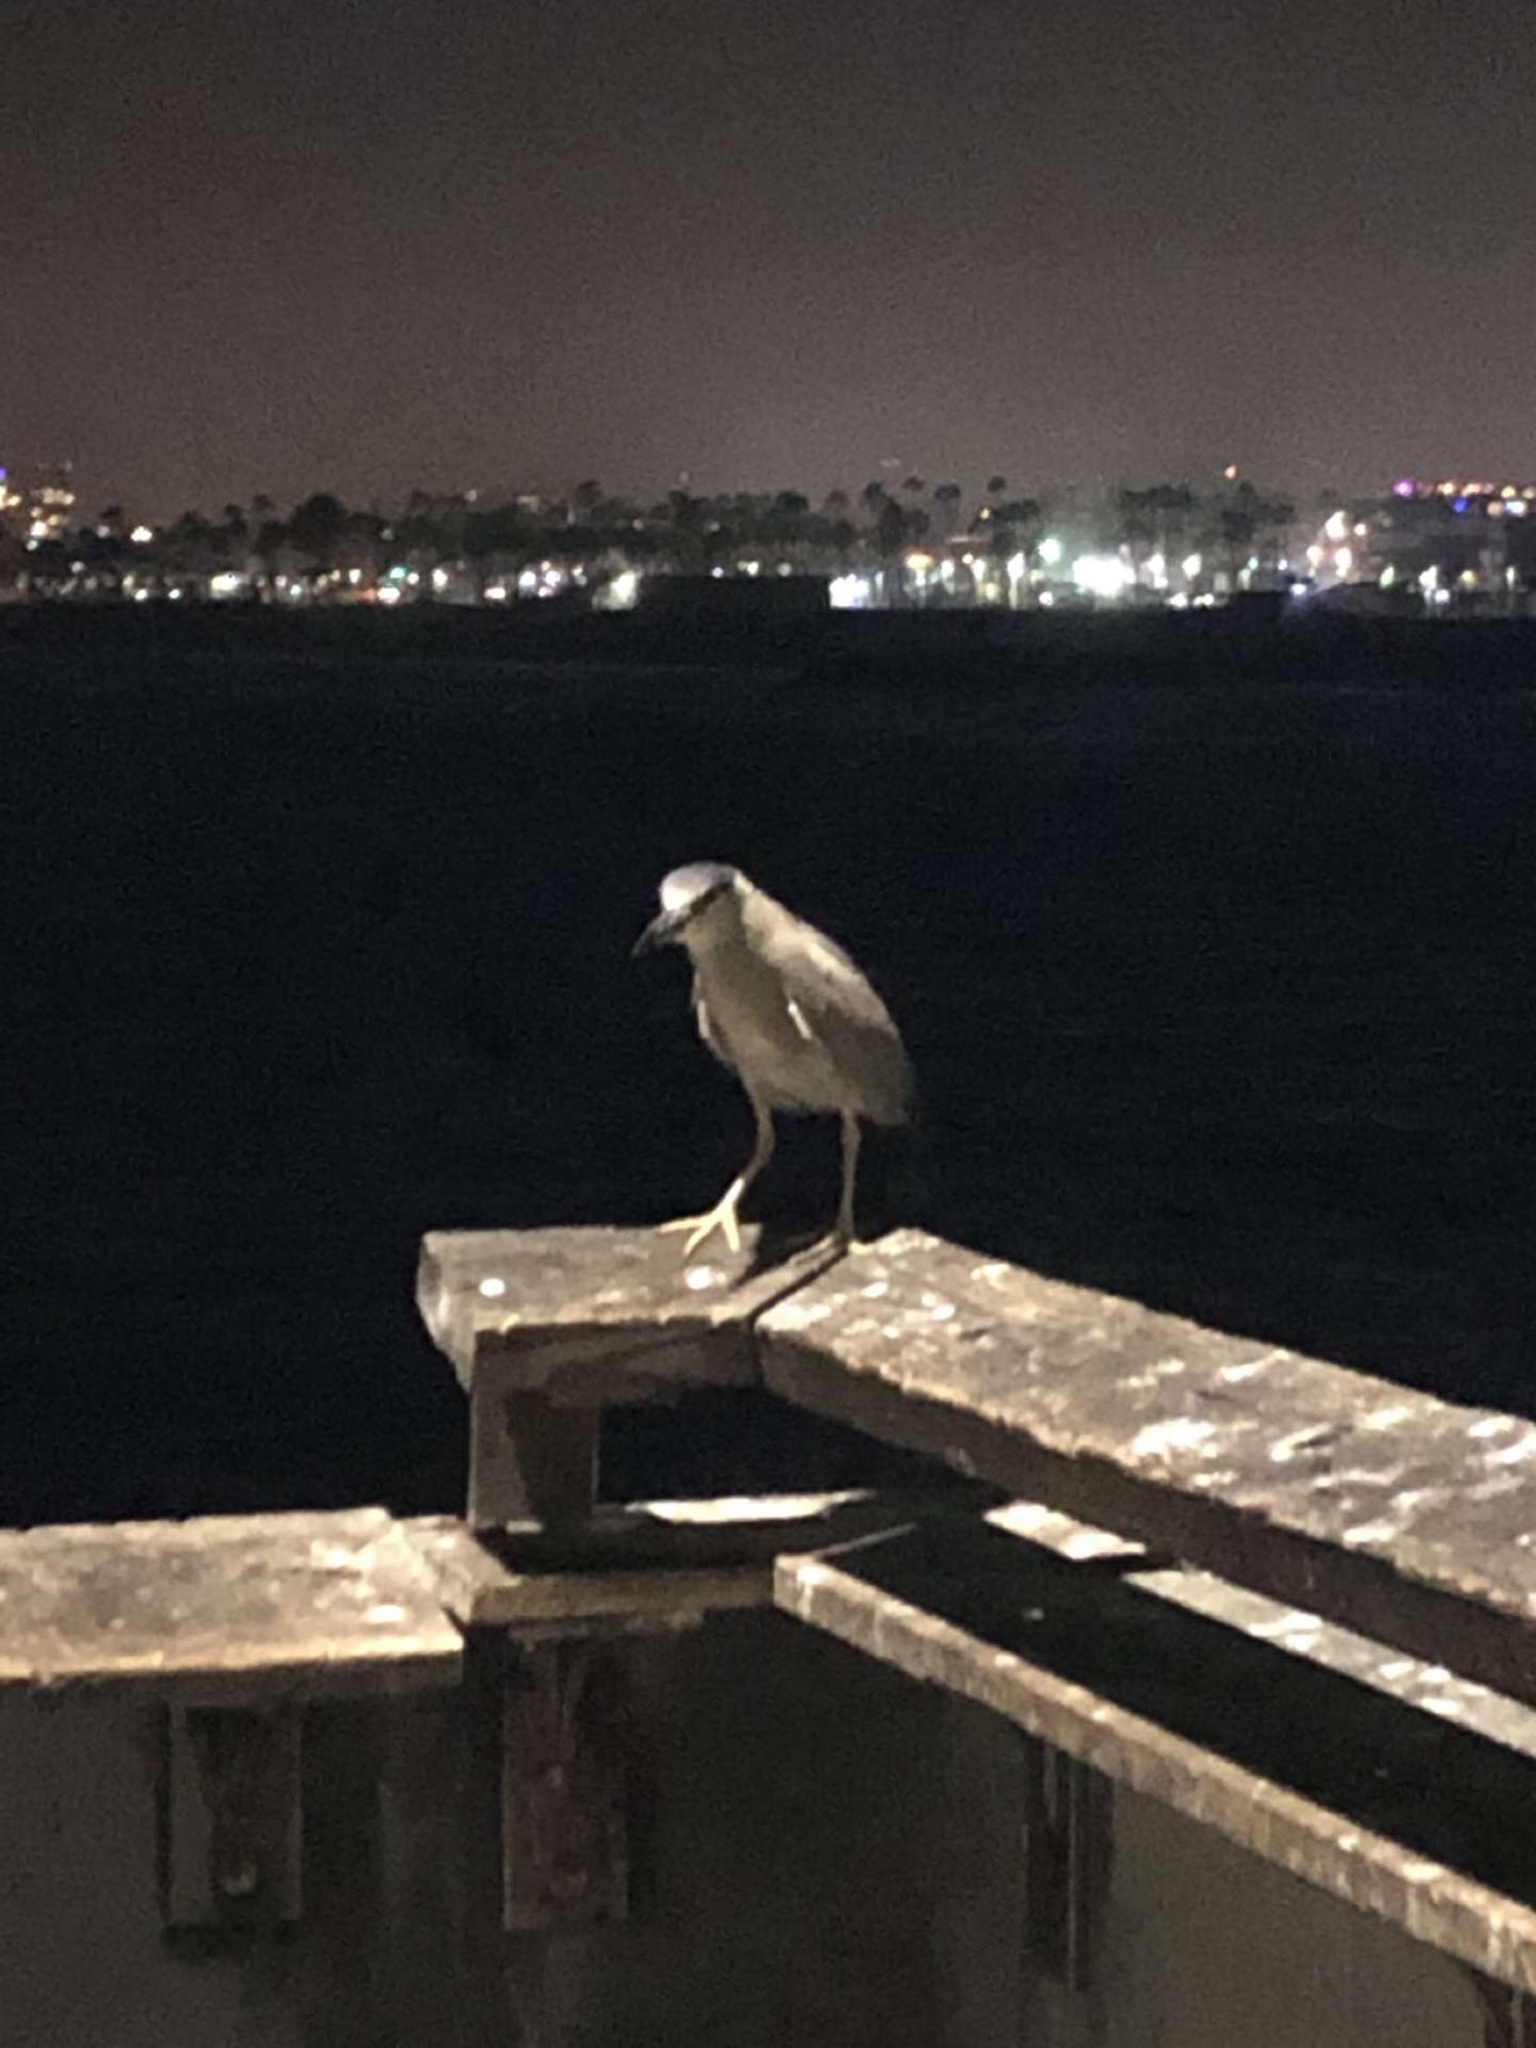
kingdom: Animalia
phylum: Chordata
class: Aves
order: Pelecaniformes
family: Ardeidae
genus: Nycticorax
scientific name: Nycticorax nycticorax
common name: Black-crowned night heron
